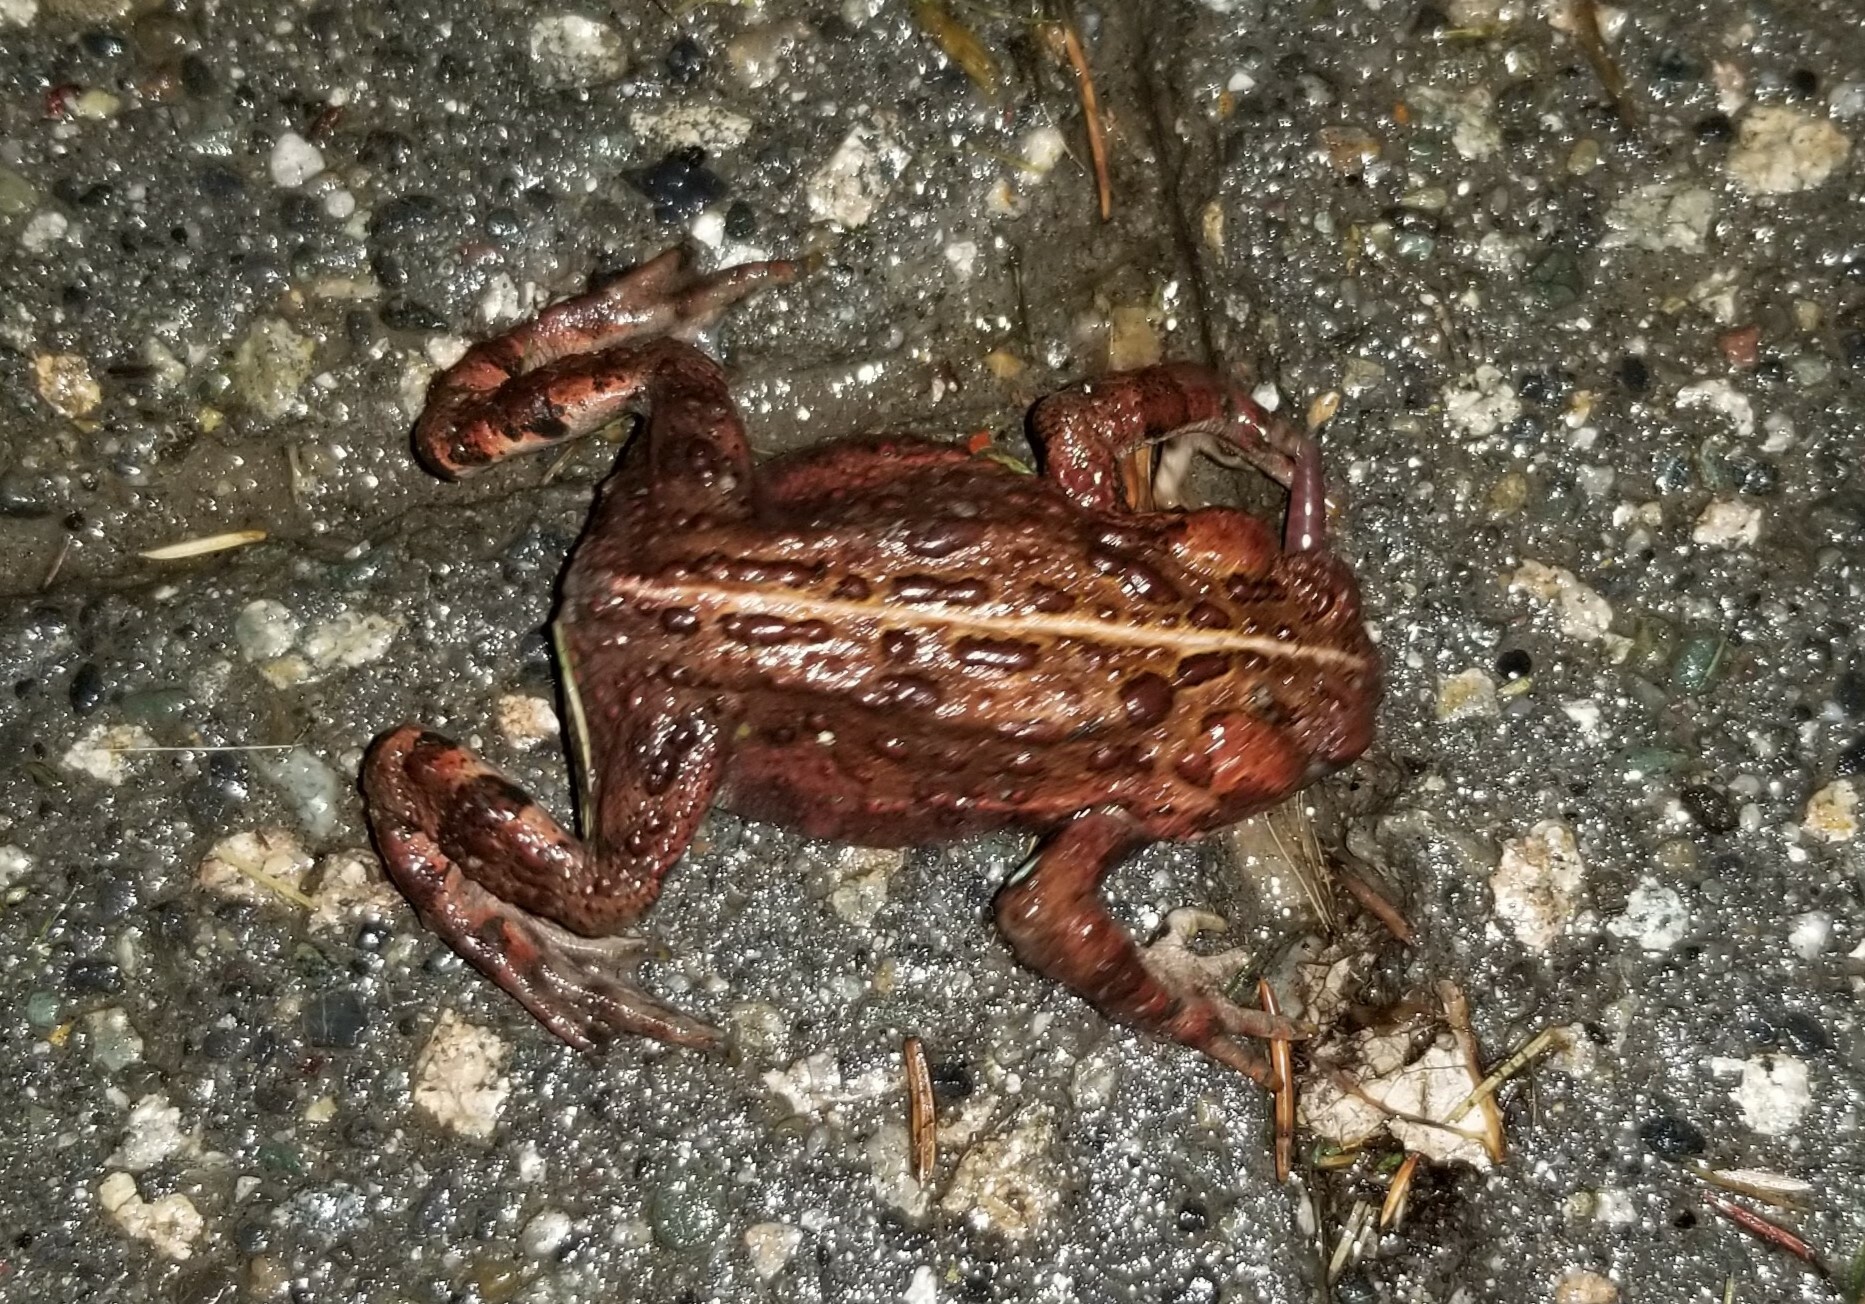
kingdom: Animalia
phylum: Chordata
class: Amphibia
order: Anura
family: Bufonidae
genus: Anaxyrus
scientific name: Anaxyrus boreas
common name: Western toad
